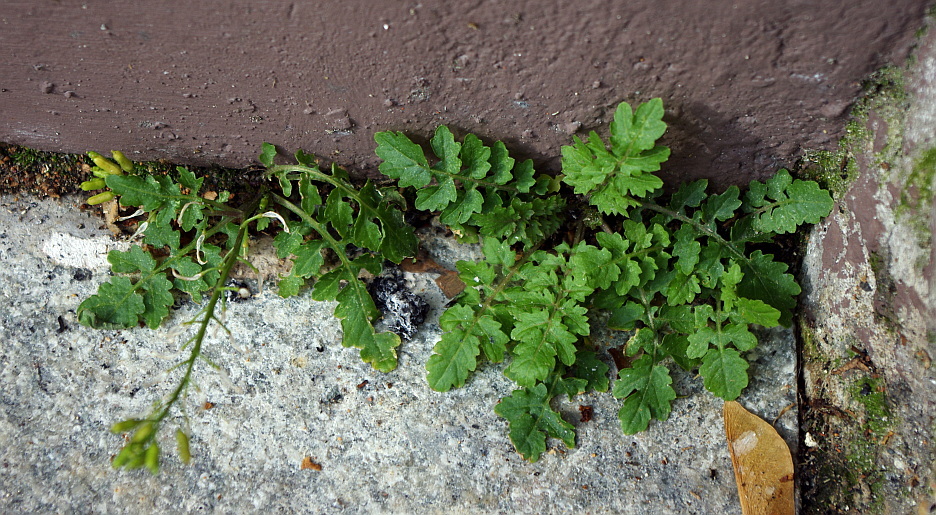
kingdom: Plantae
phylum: Tracheophyta
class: Magnoliopsida
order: Brassicales
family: Brassicaceae
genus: Rorippa
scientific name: Rorippa palustris
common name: Marsh yellow-cress
